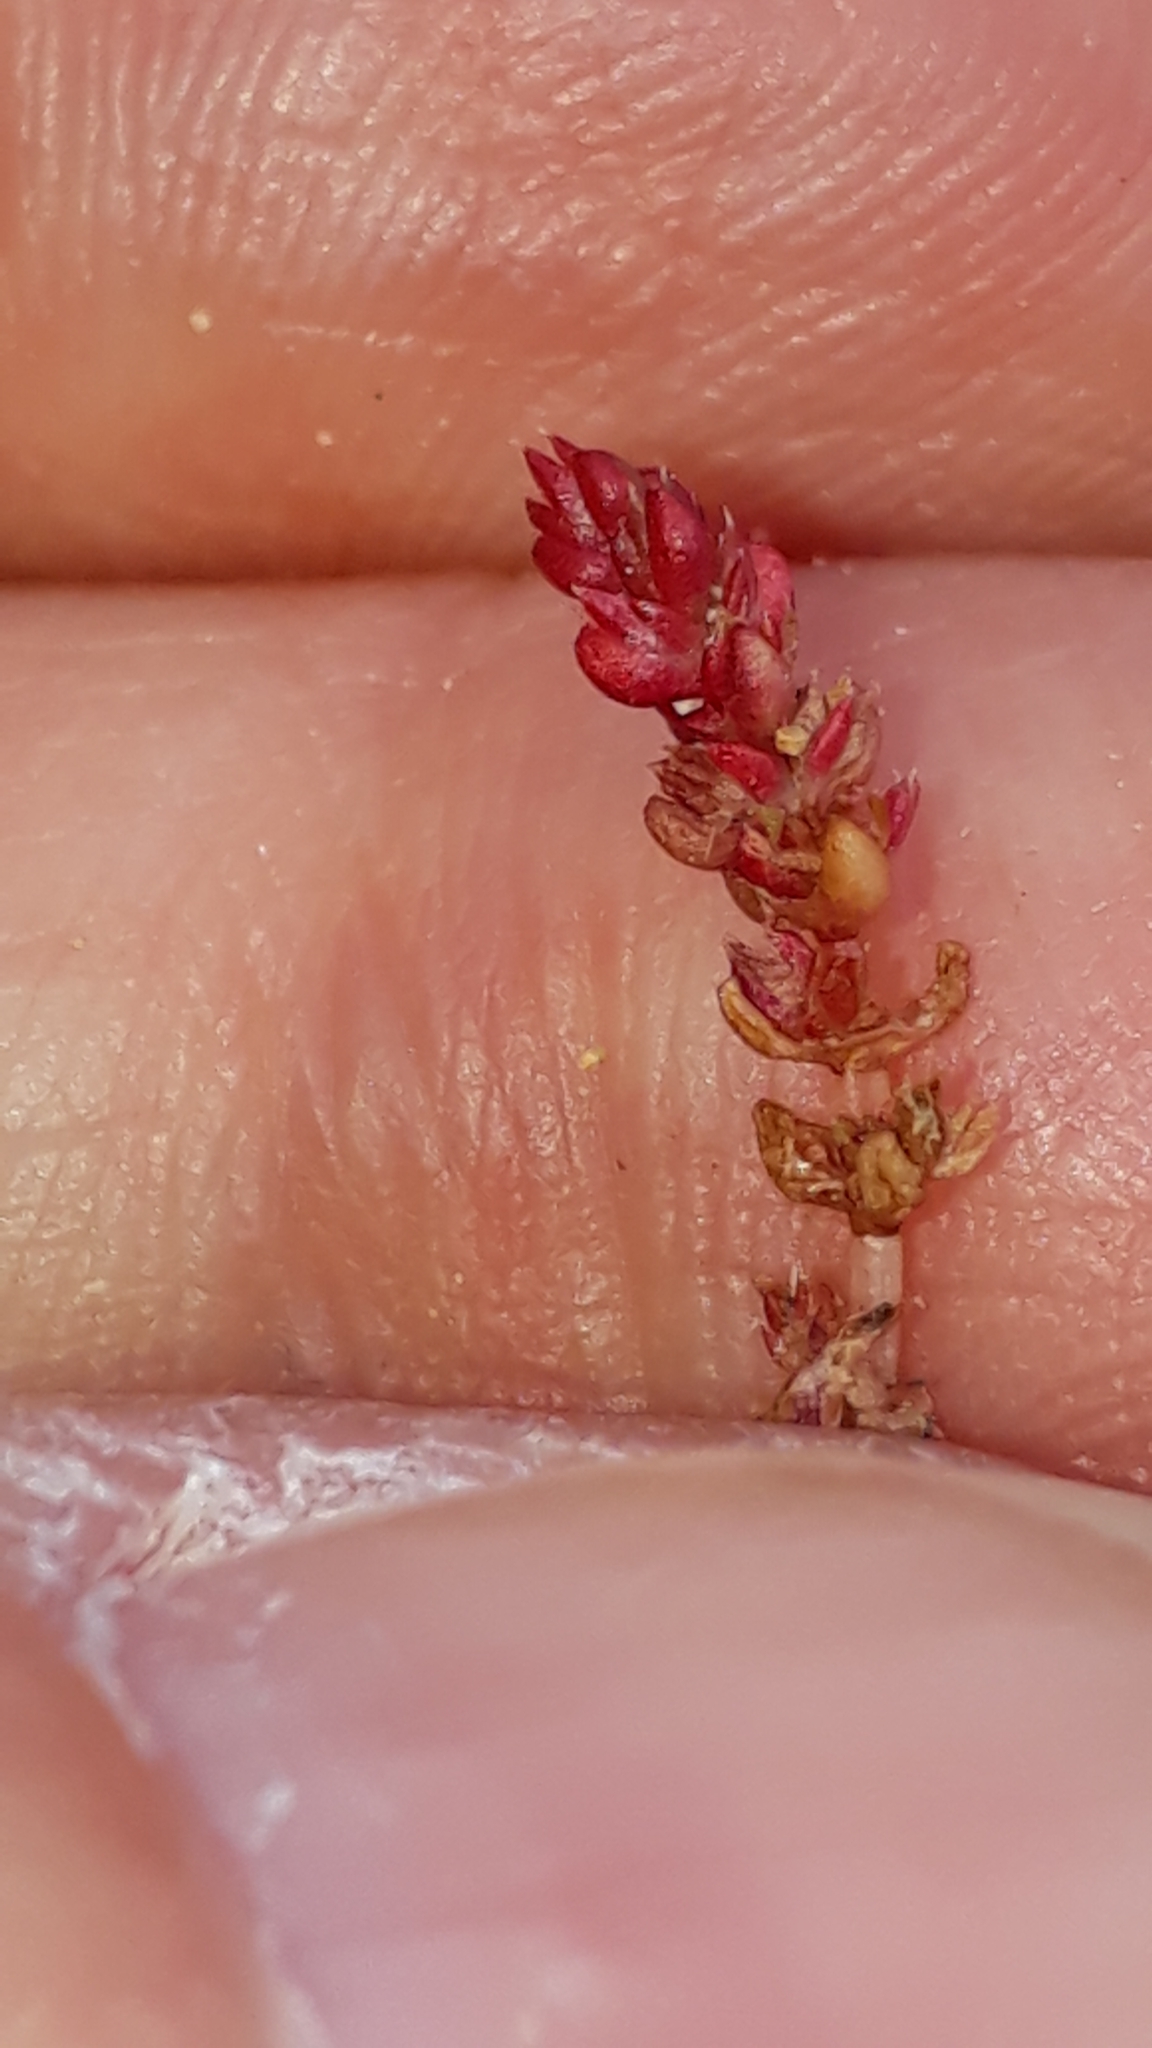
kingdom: Plantae
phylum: Tracheophyta
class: Magnoliopsida
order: Saxifragales
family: Crassulaceae
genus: Crassula
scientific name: Crassula tillaea
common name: Mossy stonecrop
